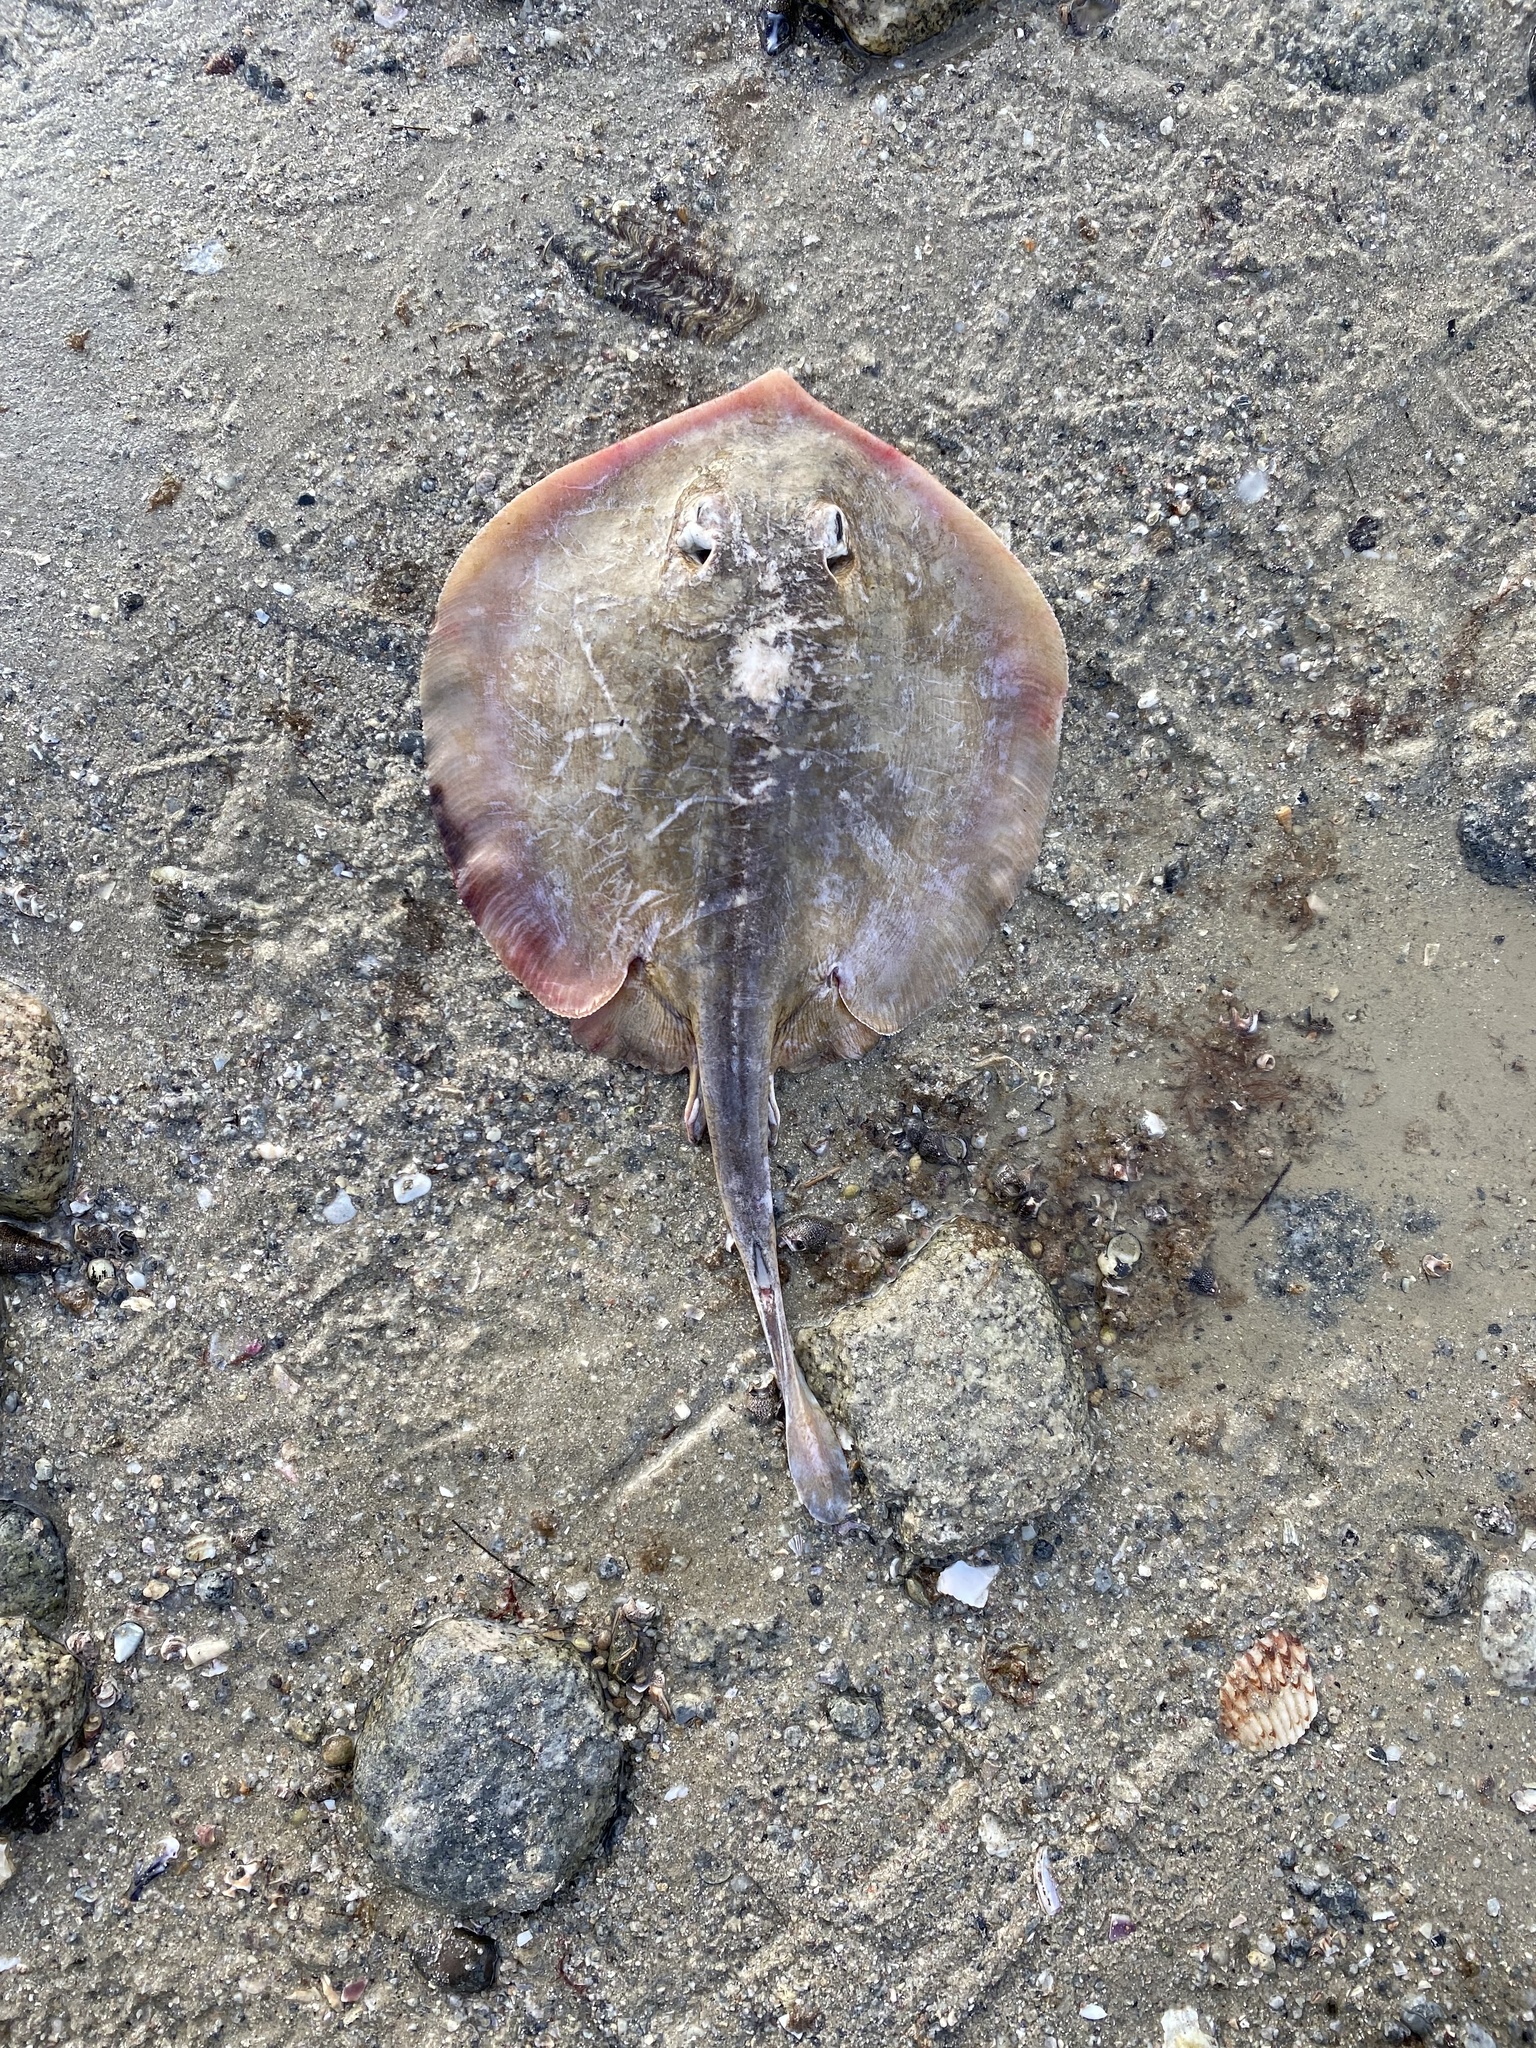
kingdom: Animalia
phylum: Chordata
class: Elasmobranchii
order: Myliobatiformes
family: Urolophidae
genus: Urolophus
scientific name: Urolophus halleri
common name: Round stingray
